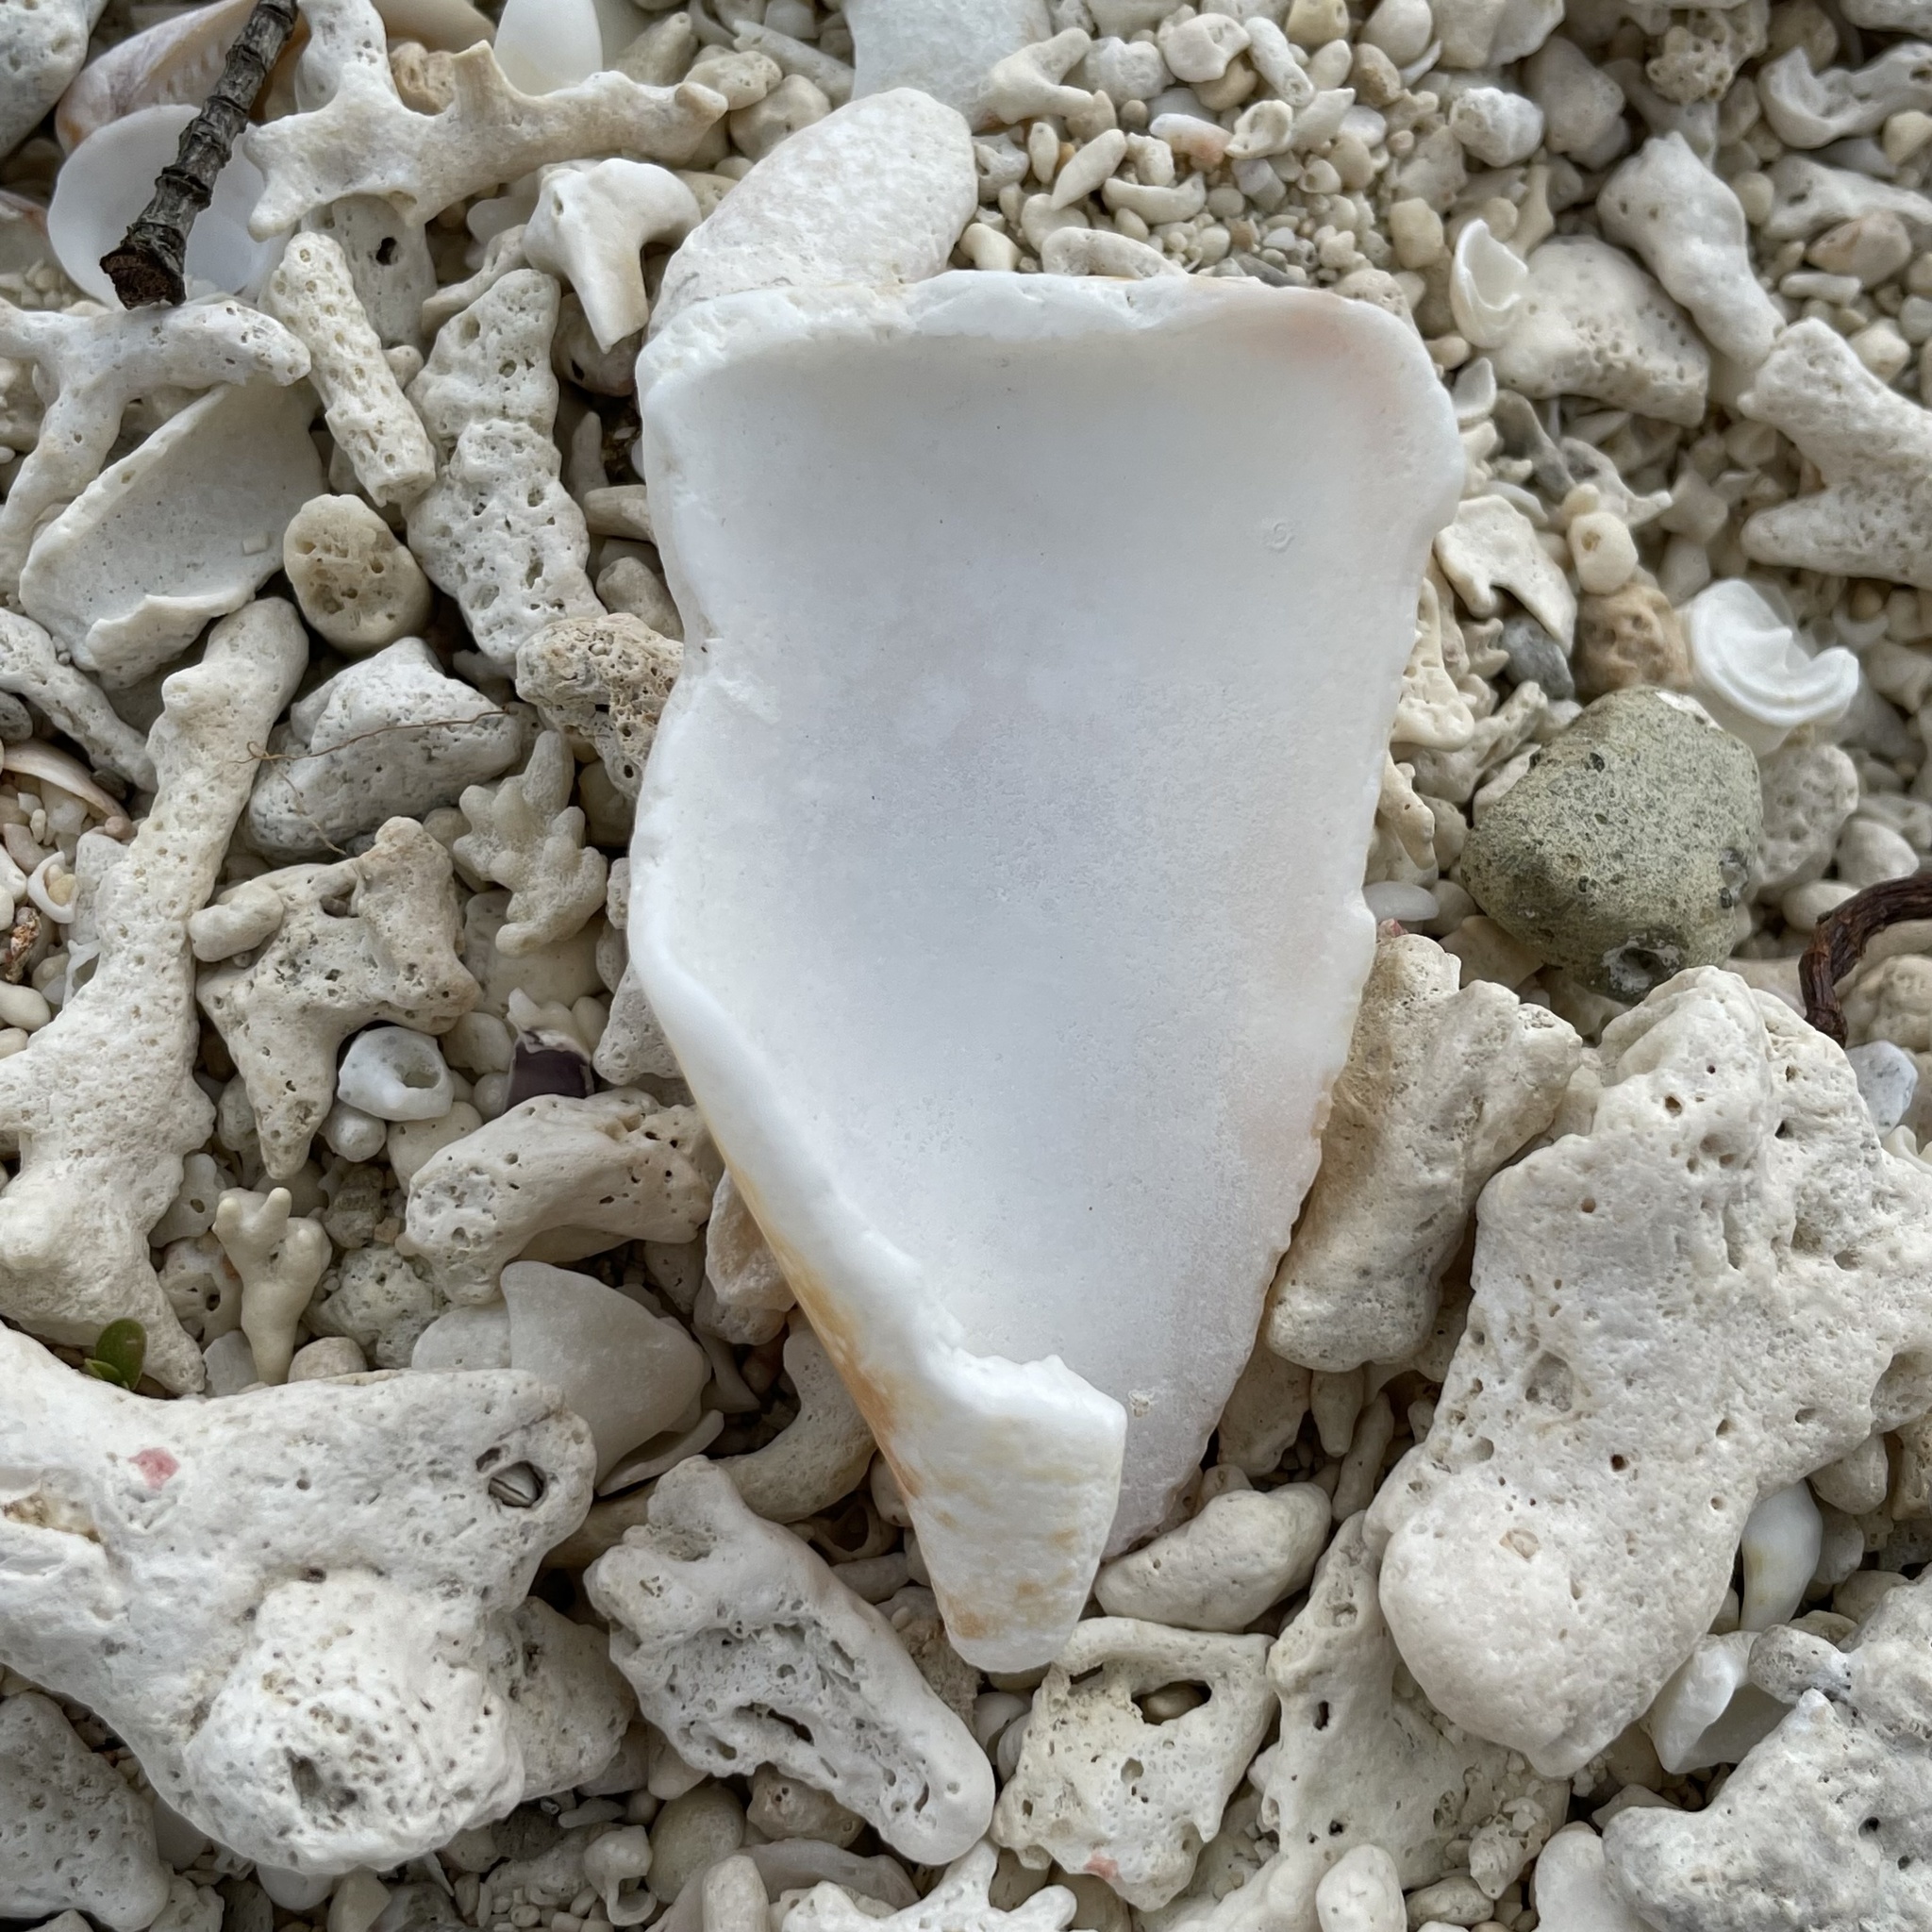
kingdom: Animalia
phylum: Mollusca
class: Gastropoda
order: Neogastropoda
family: Conidae
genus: Conus
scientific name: Conus vexillum
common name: Flag cone
